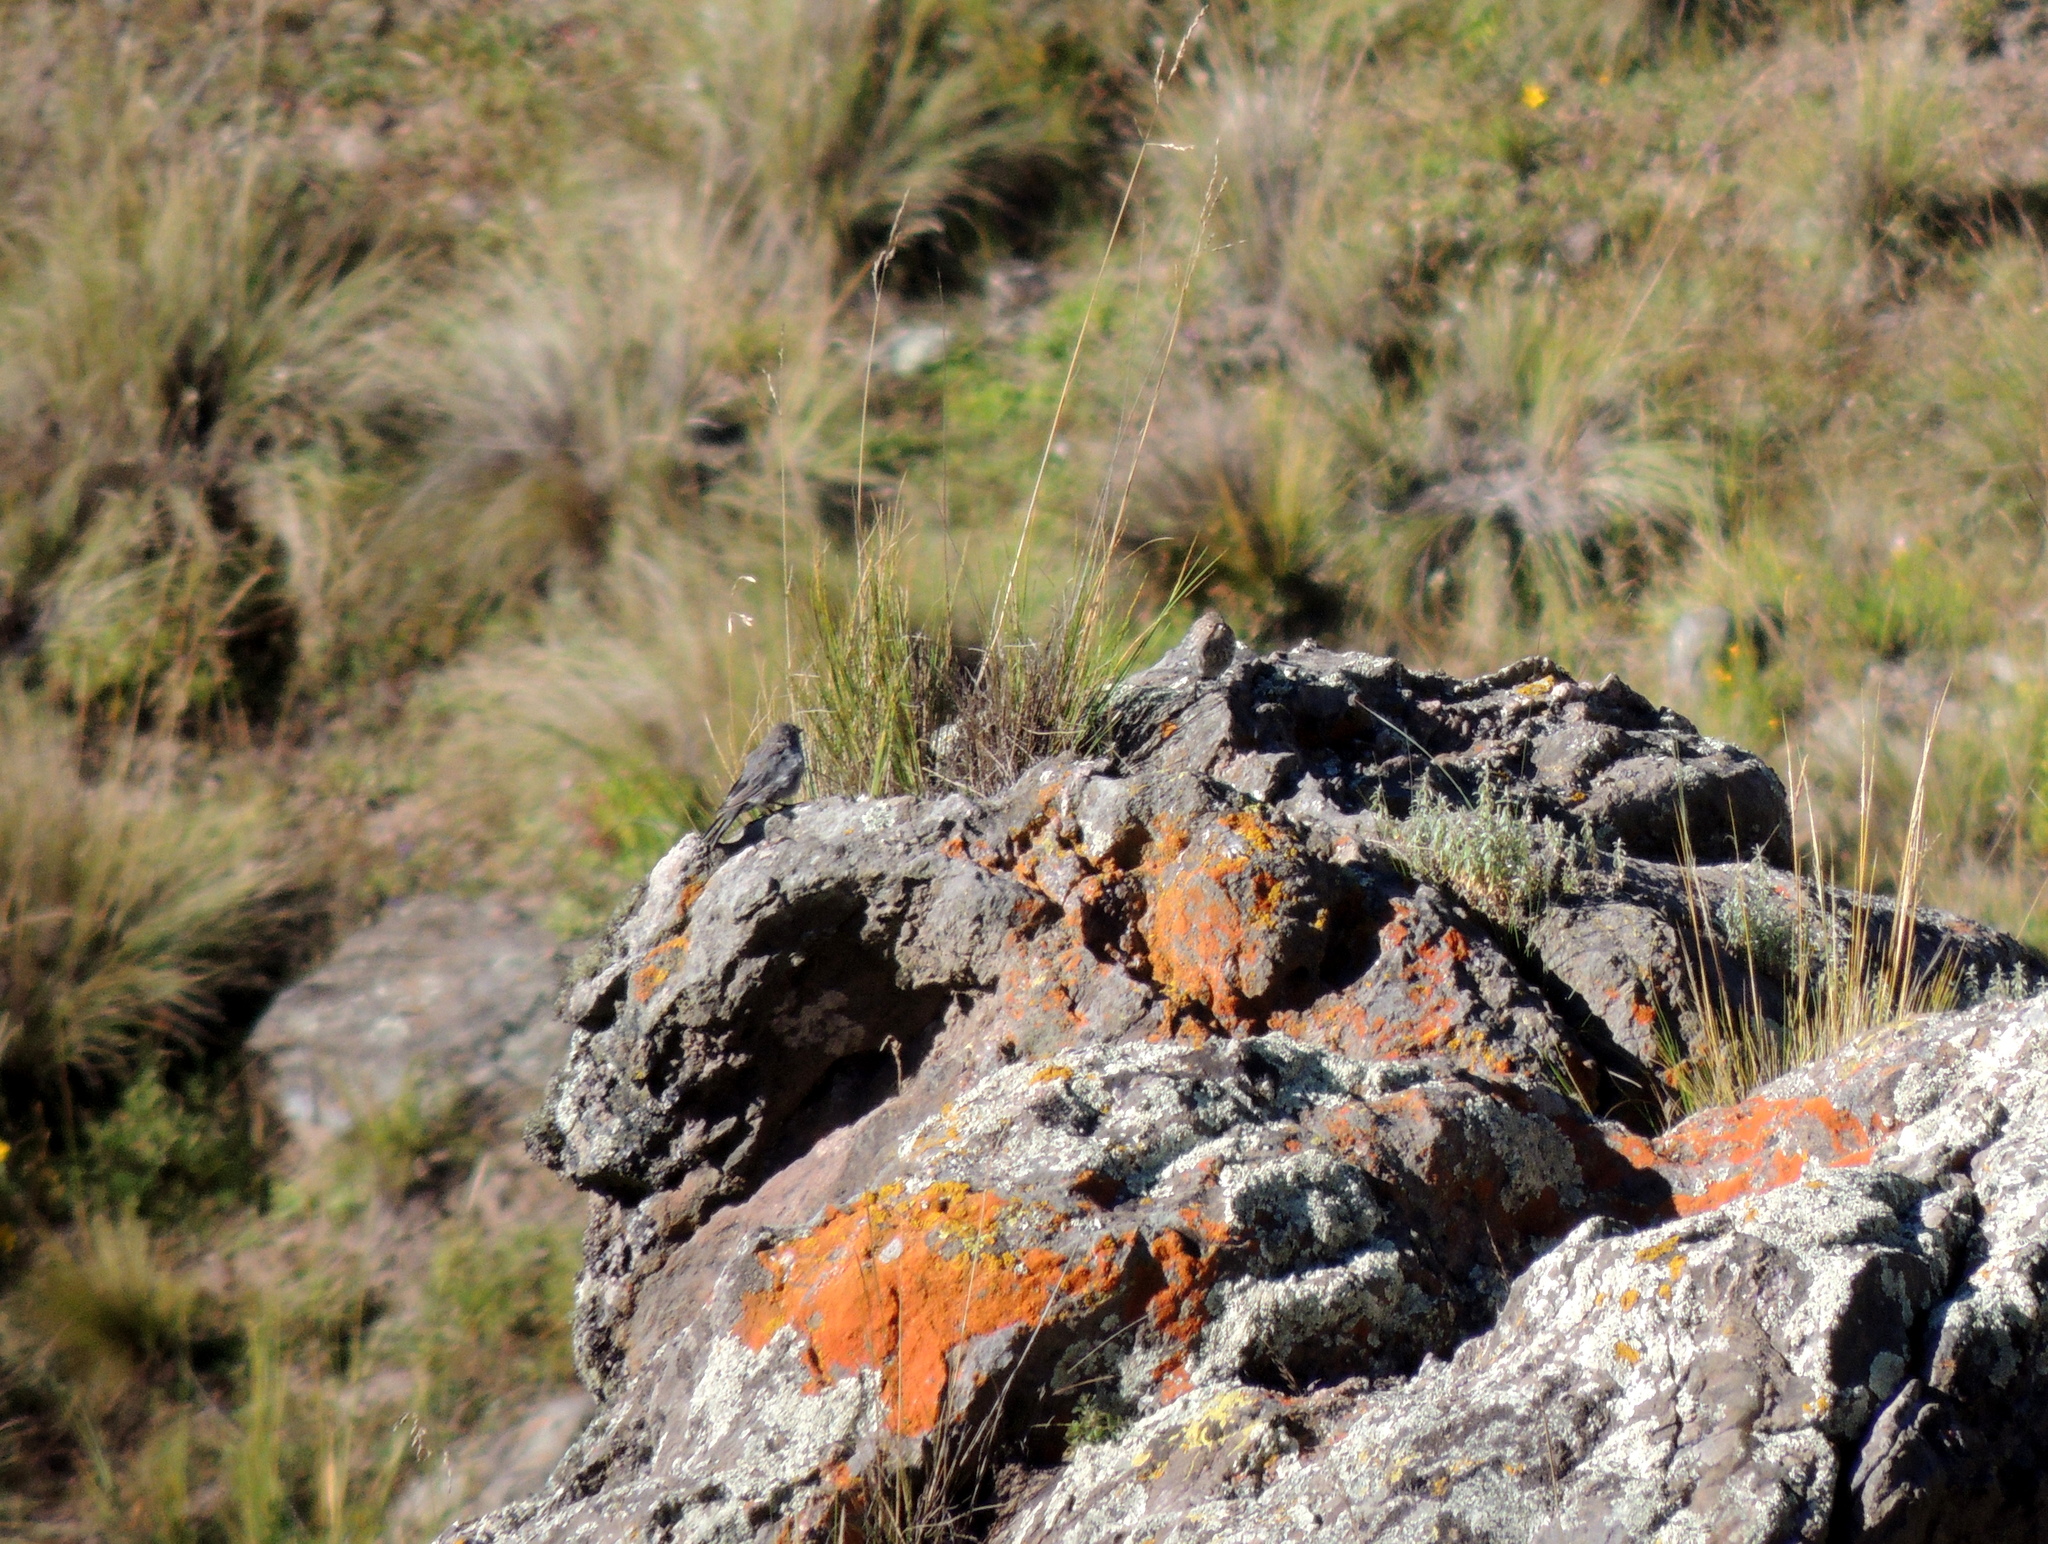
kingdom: Animalia
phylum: Chordata
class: Aves
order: Passeriformes
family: Thraupidae
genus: Geospizopsis
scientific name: Geospizopsis unicolor
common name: Plumbeous sierra-finch
